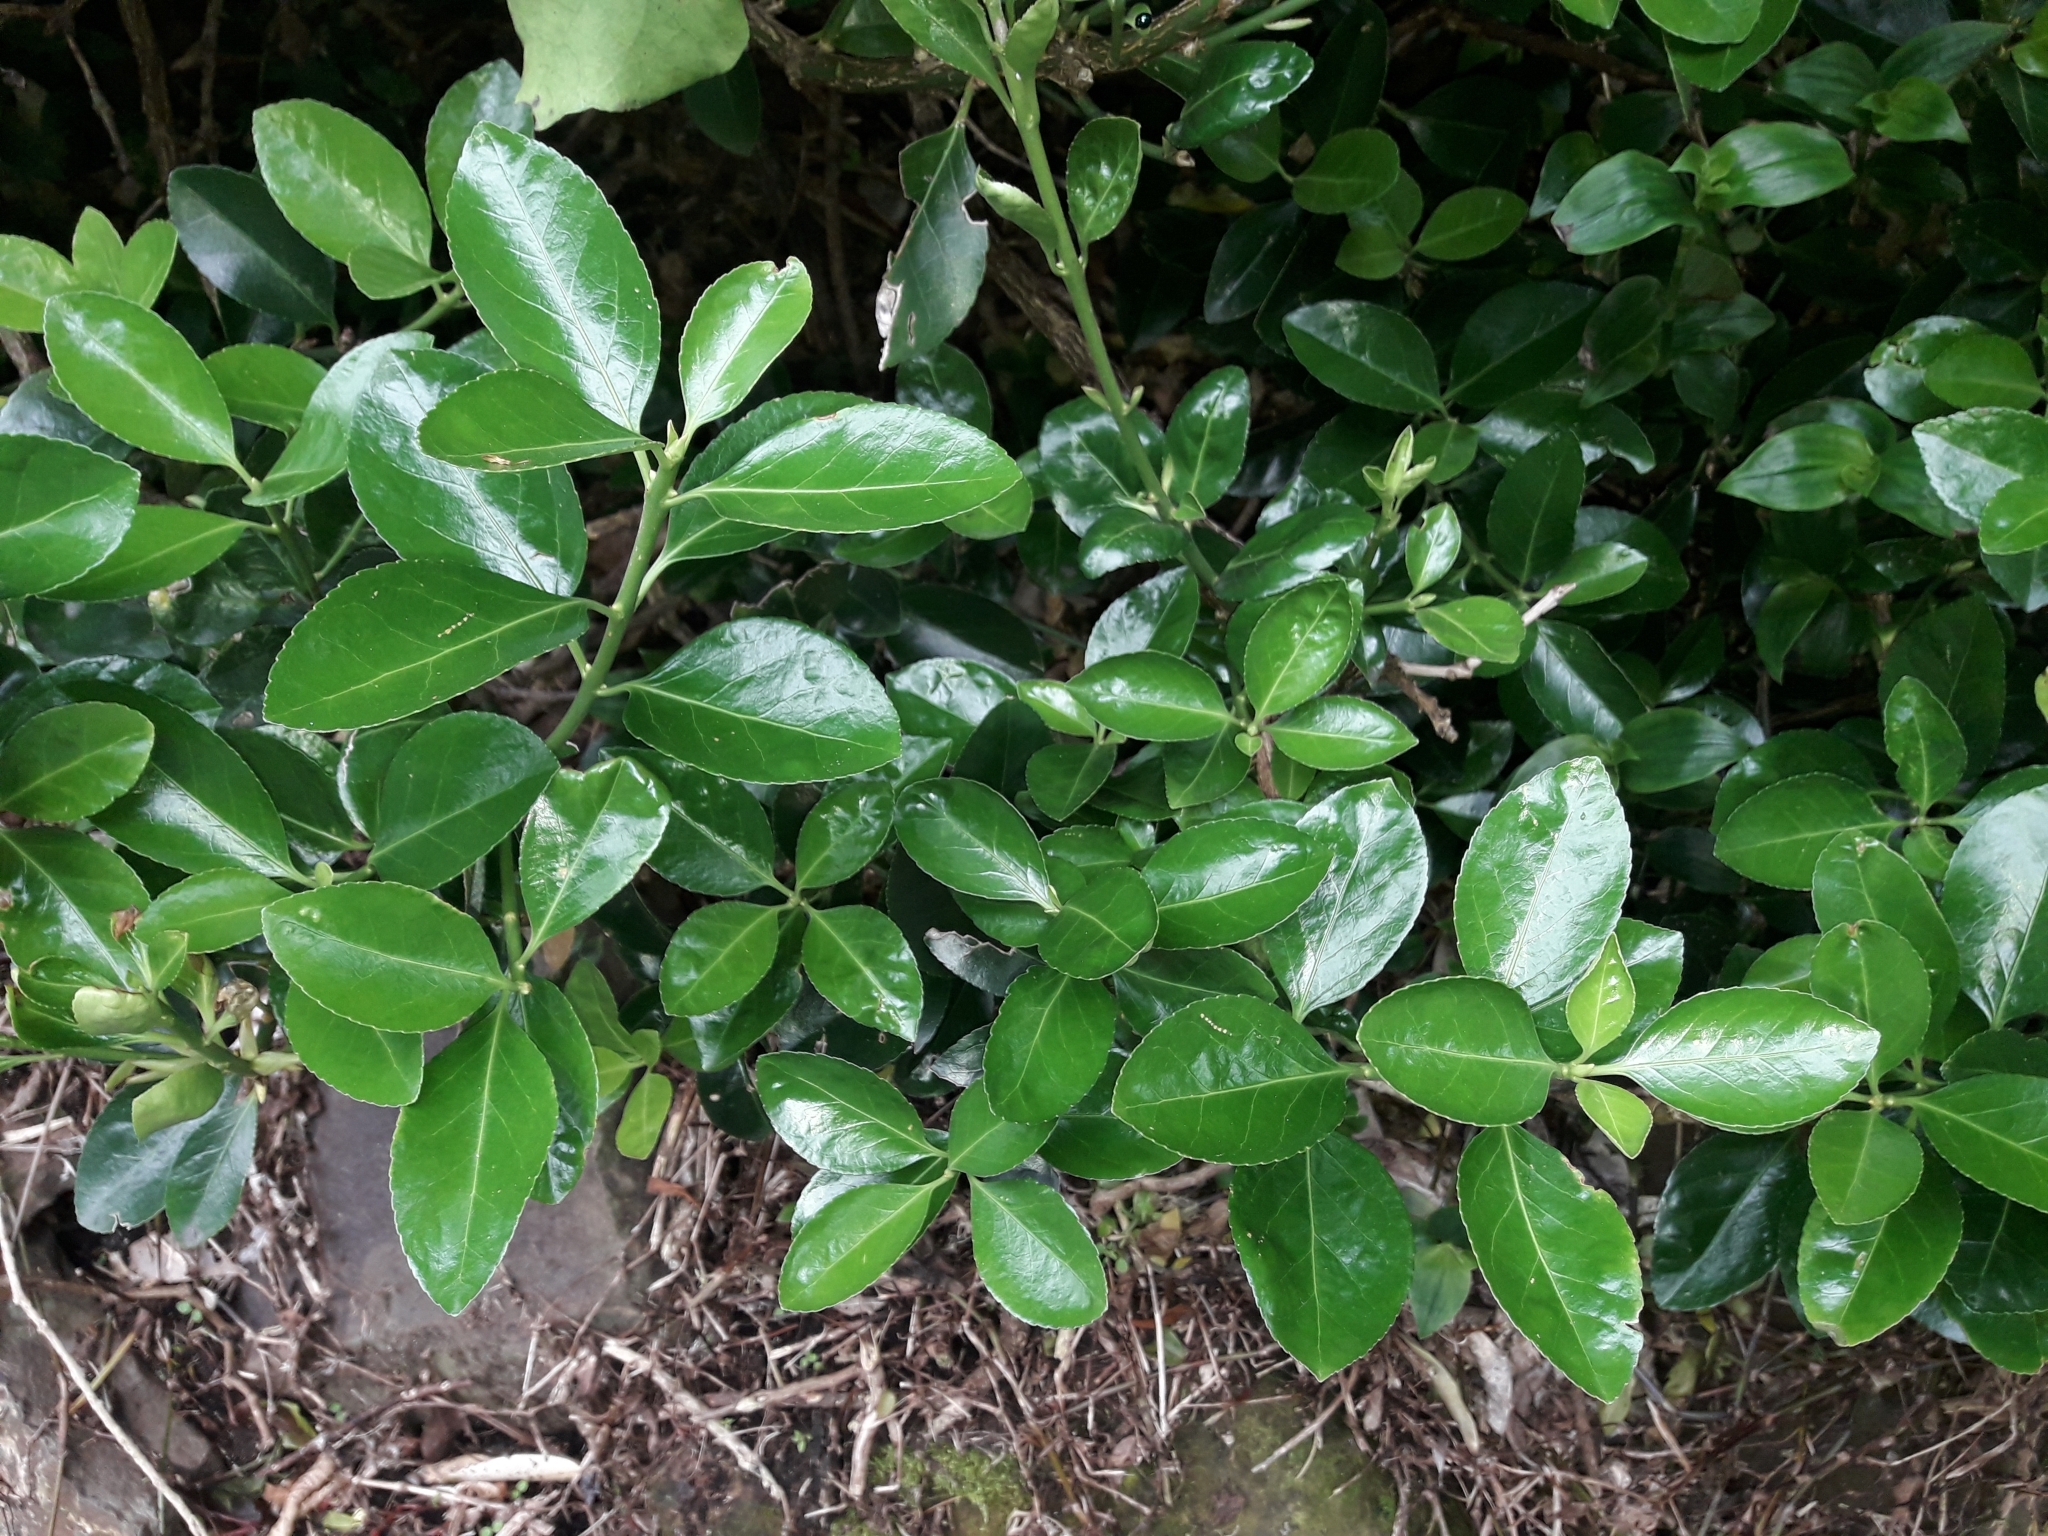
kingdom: Plantae
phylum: Tracheophyta
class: Magnoliopsida
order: Celastrales
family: Celastraceae
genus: Euonymus
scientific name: Euonymus japonicus
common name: Japanese spindletree
